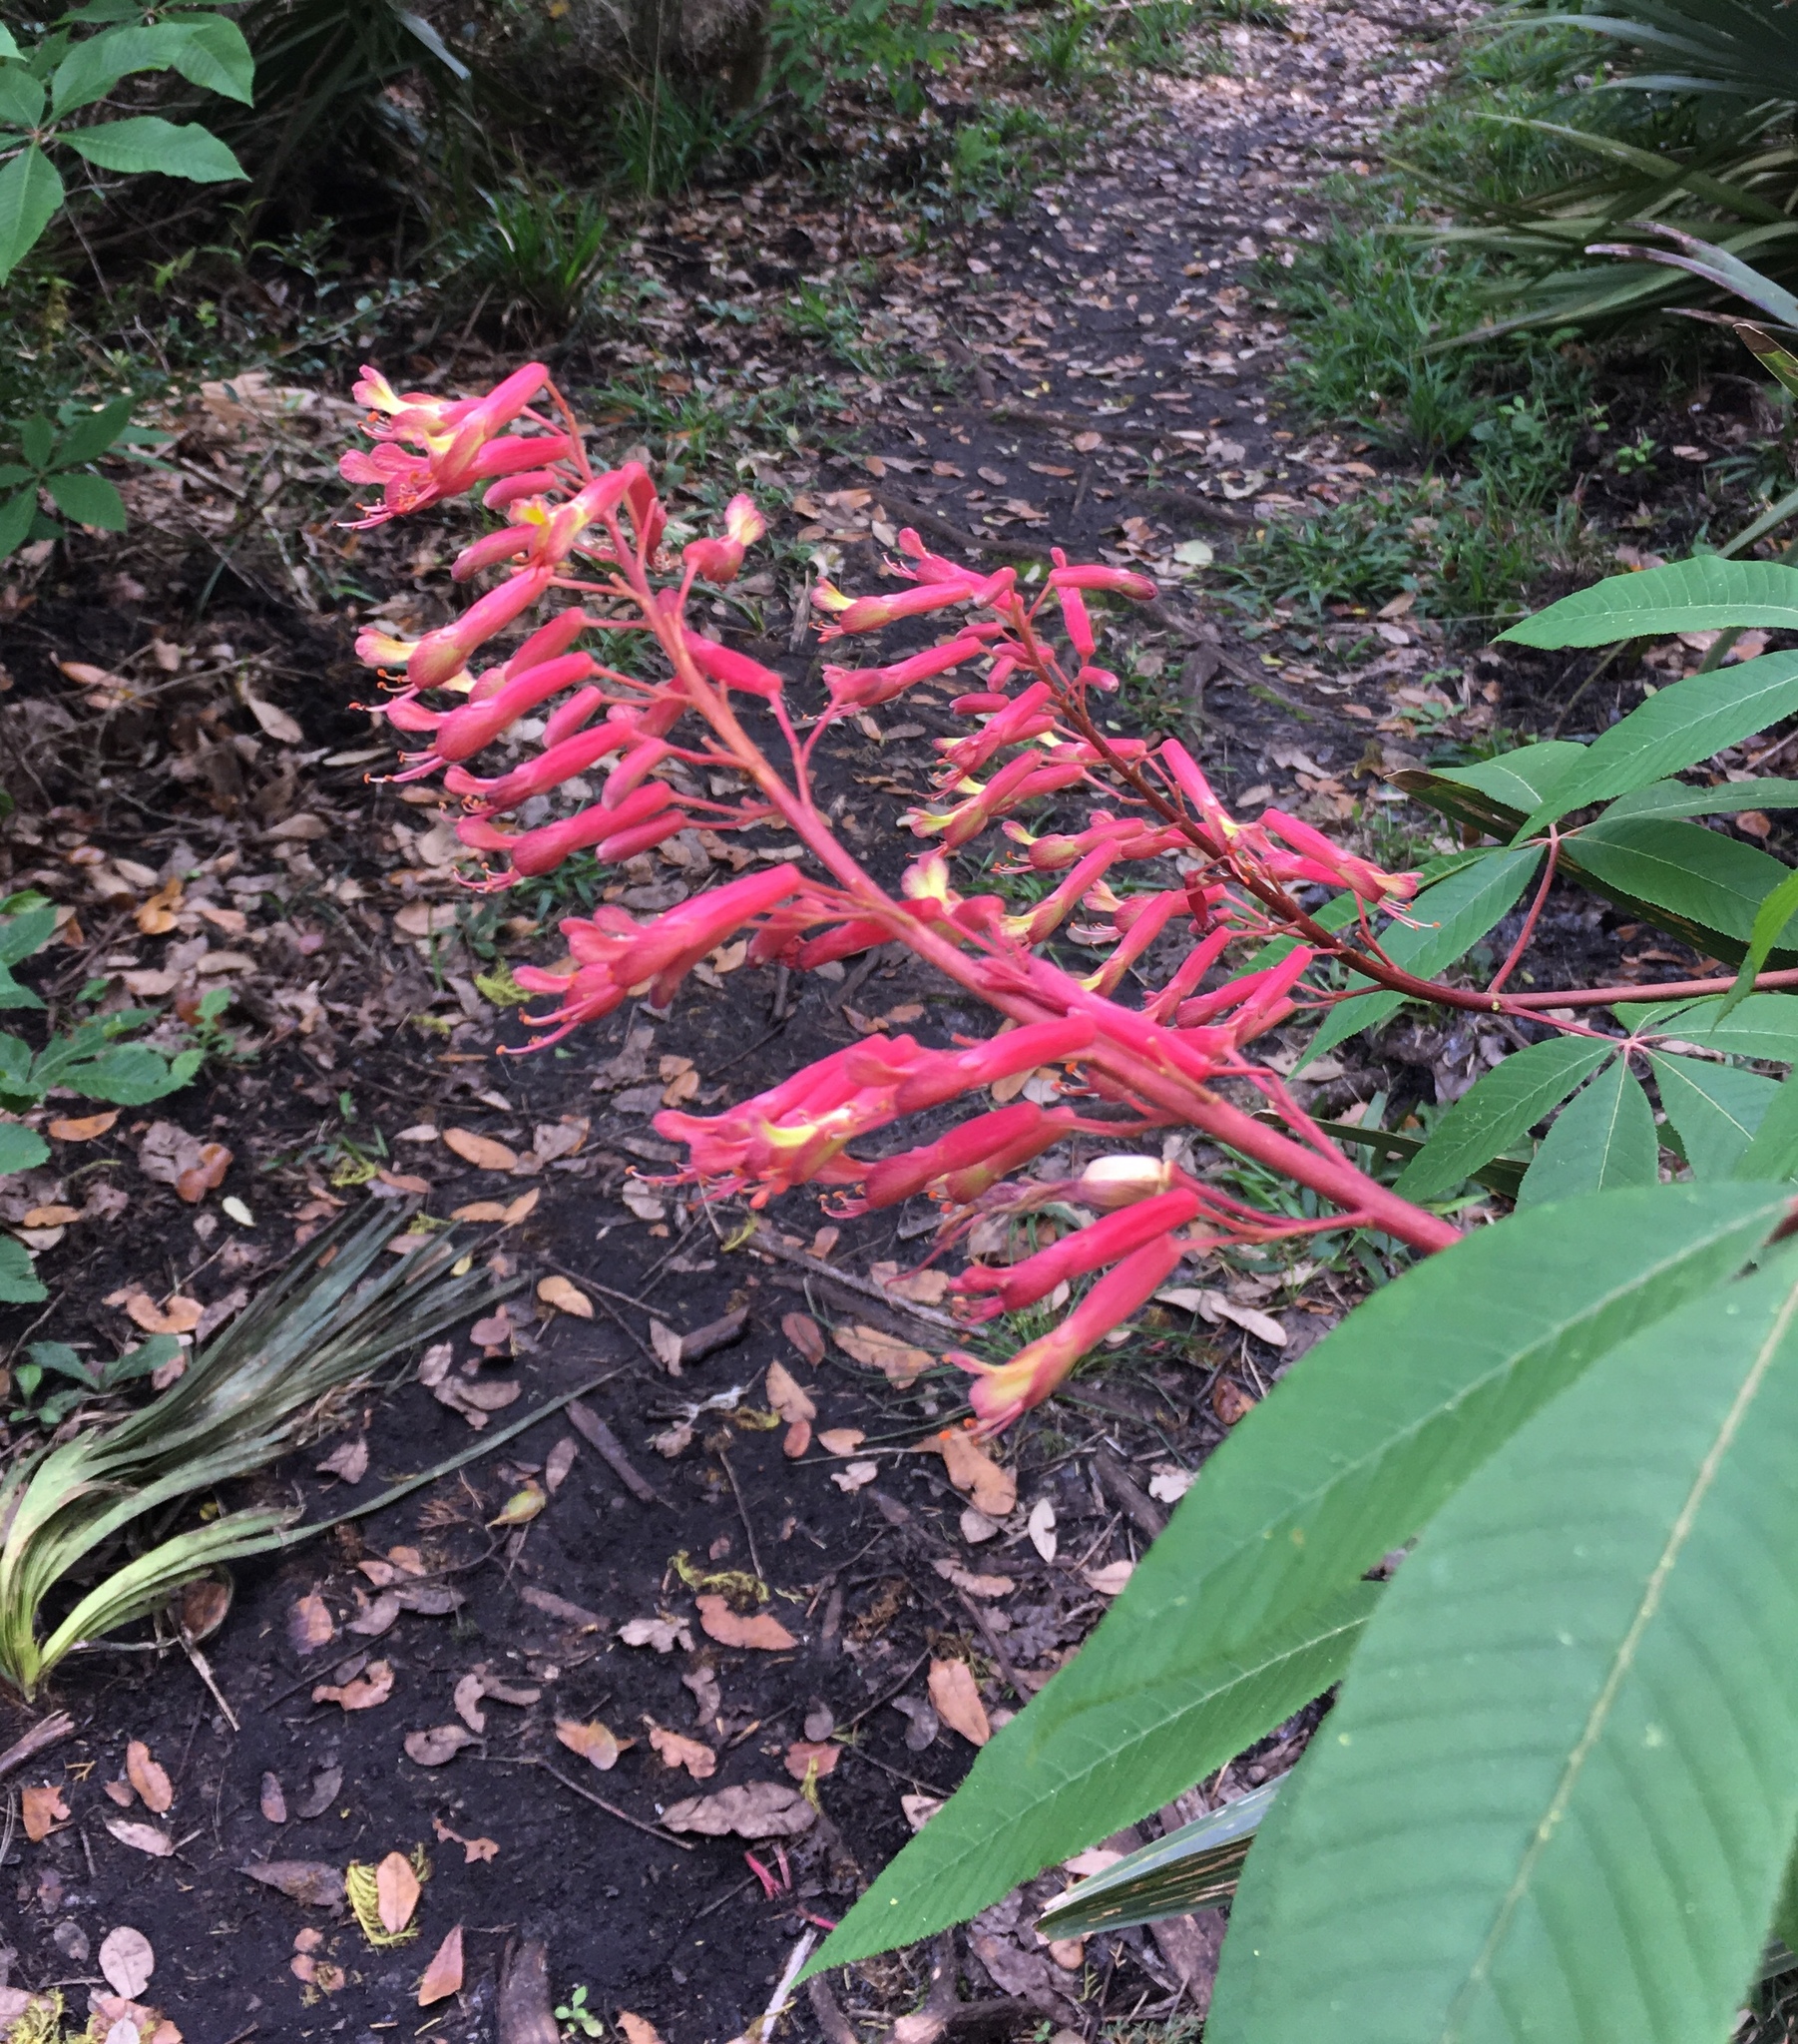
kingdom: Plantae
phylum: Tracheophyta
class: Magnoliopsida
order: Sapindales
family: Sapindaceae
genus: Aesculus
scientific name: Aesculus pavia
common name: Red buckeye
